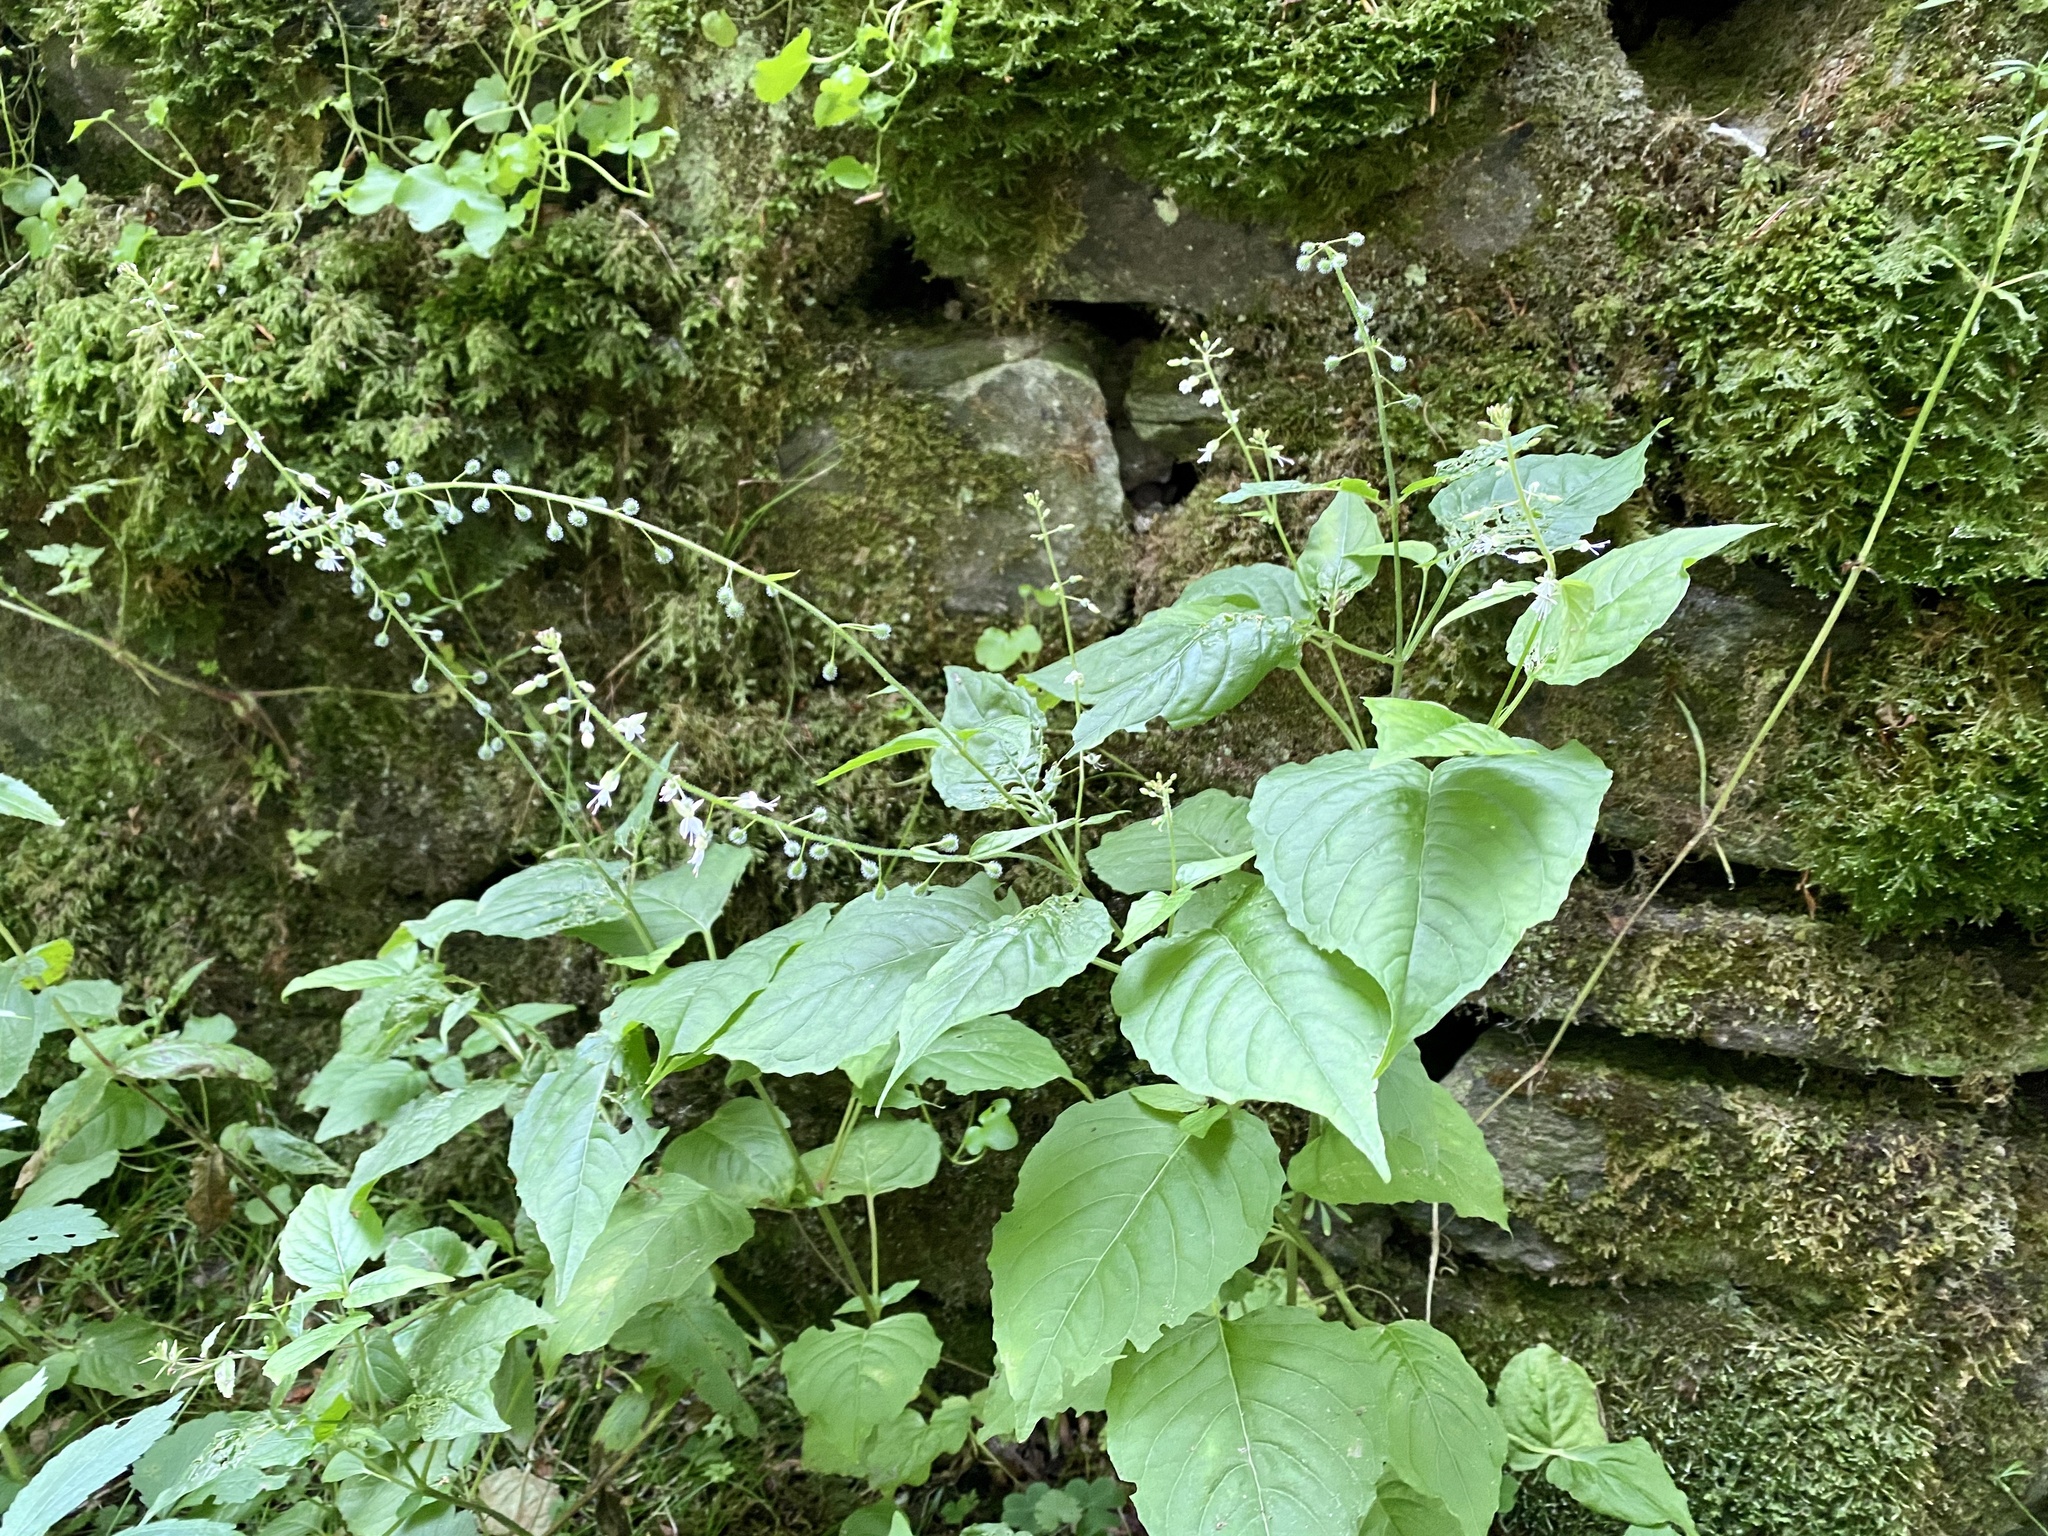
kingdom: Plantae
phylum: Tracheophyta
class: Magnoliopsida
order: Myrtales
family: Onagraceae
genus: Circaea
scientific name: Circaea lutetiana
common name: Enchanter's-nightshade
